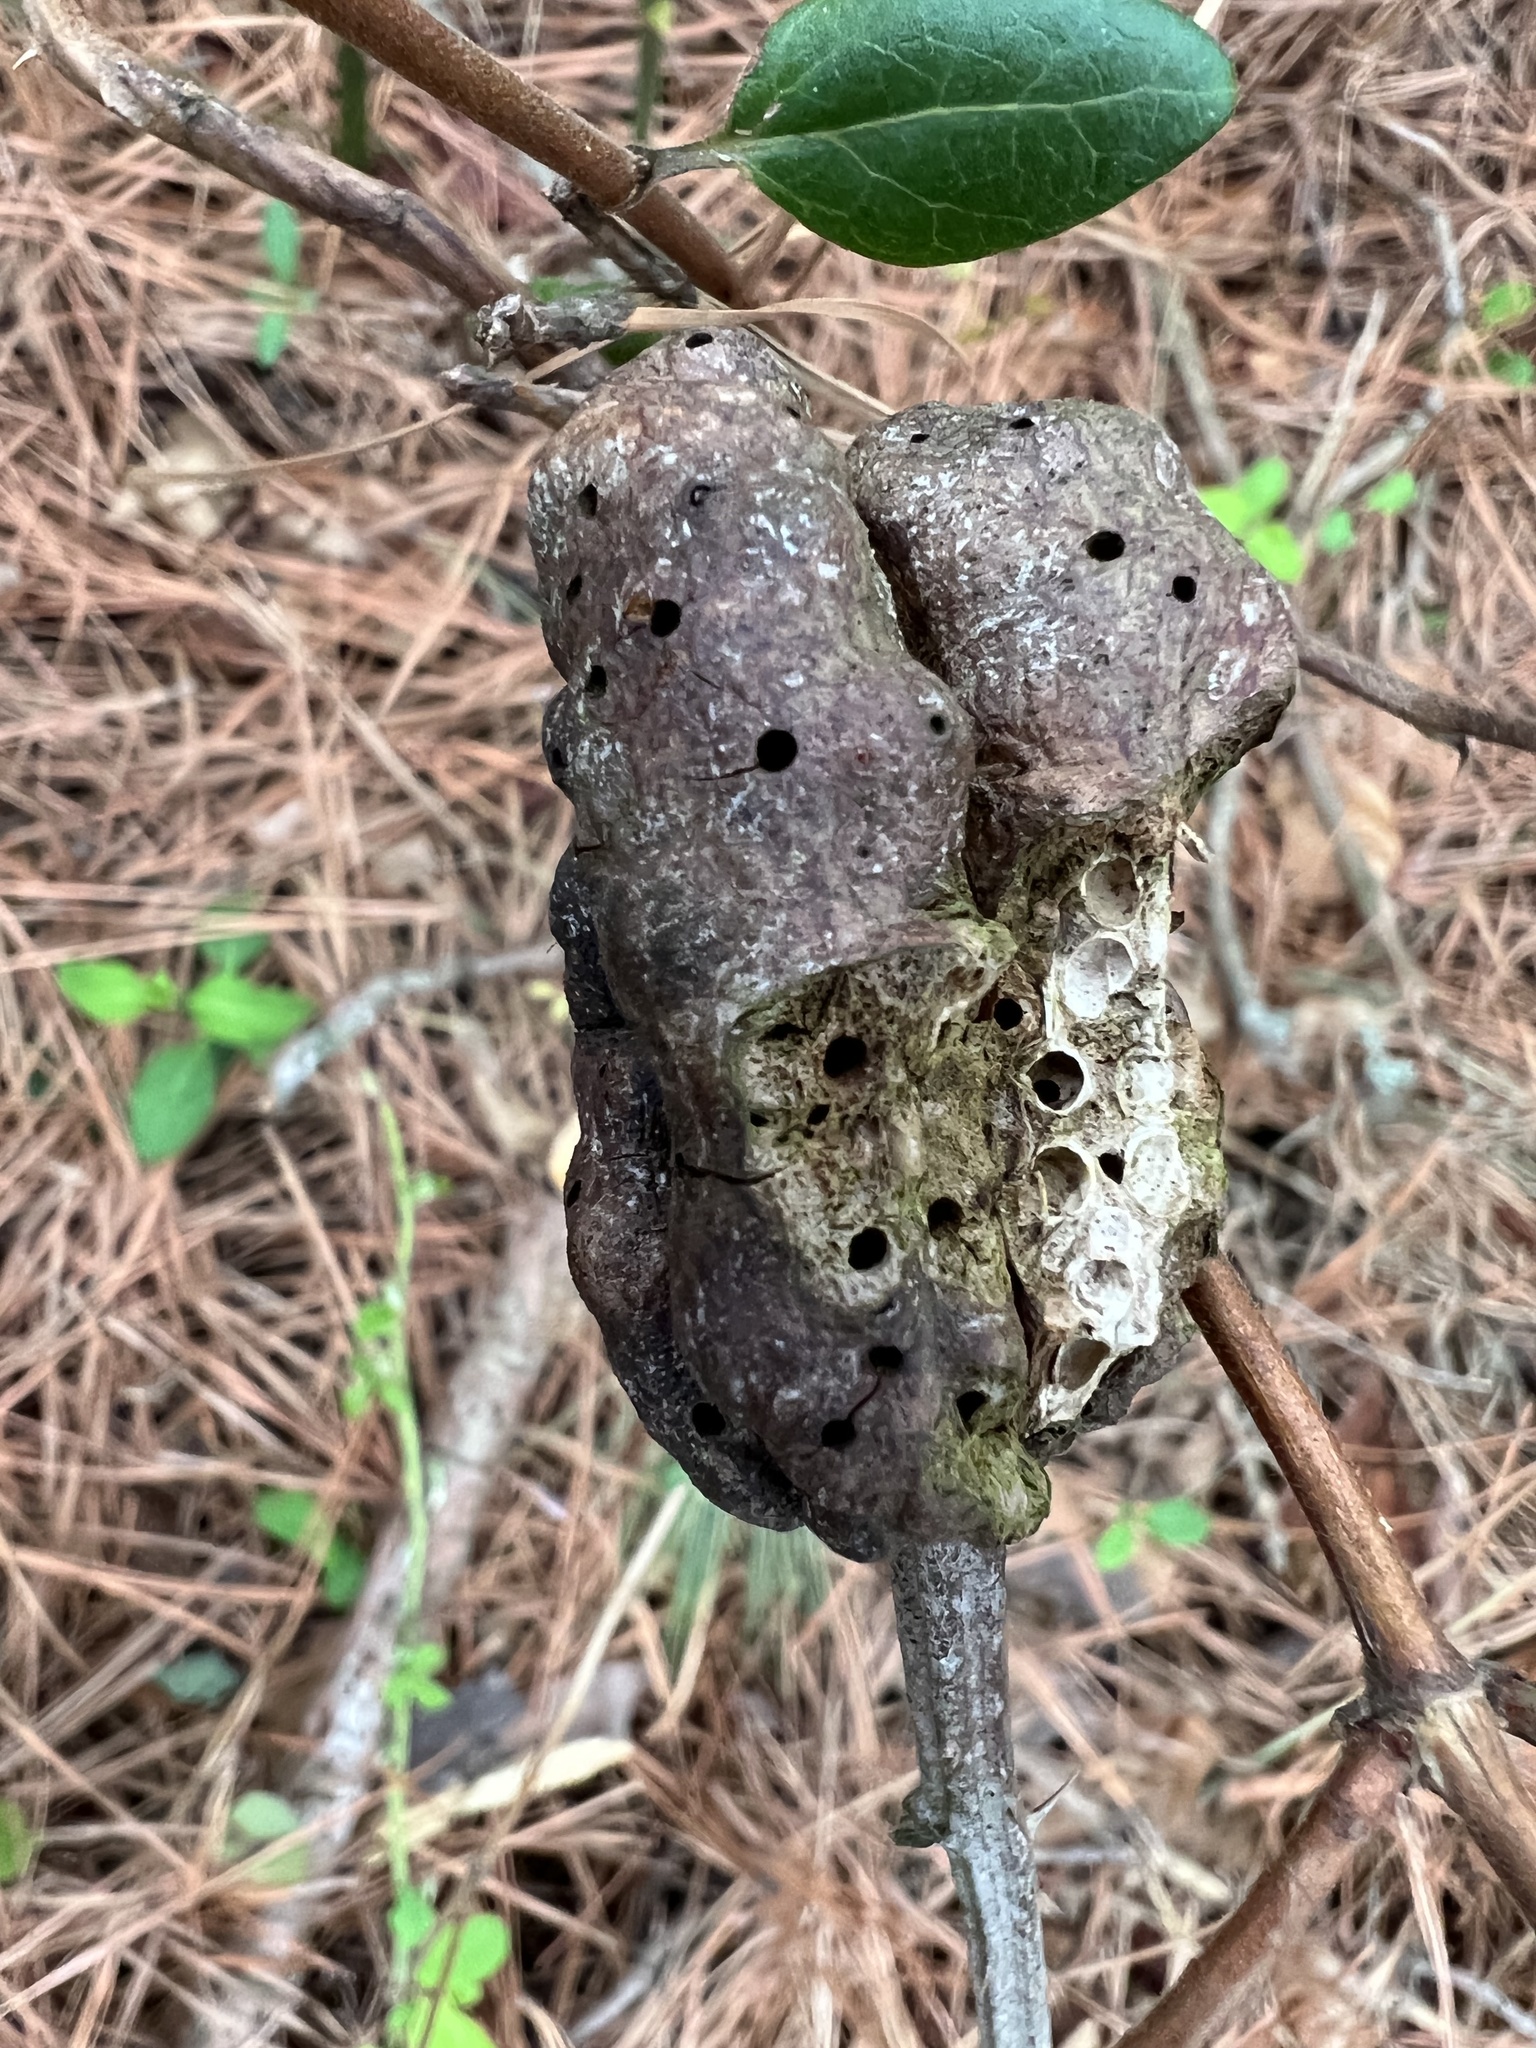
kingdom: Animalia
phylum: Arthropoda
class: Insecta
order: Hymenoptera
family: Cynipidae
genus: Diastrophus
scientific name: Diastrophus
